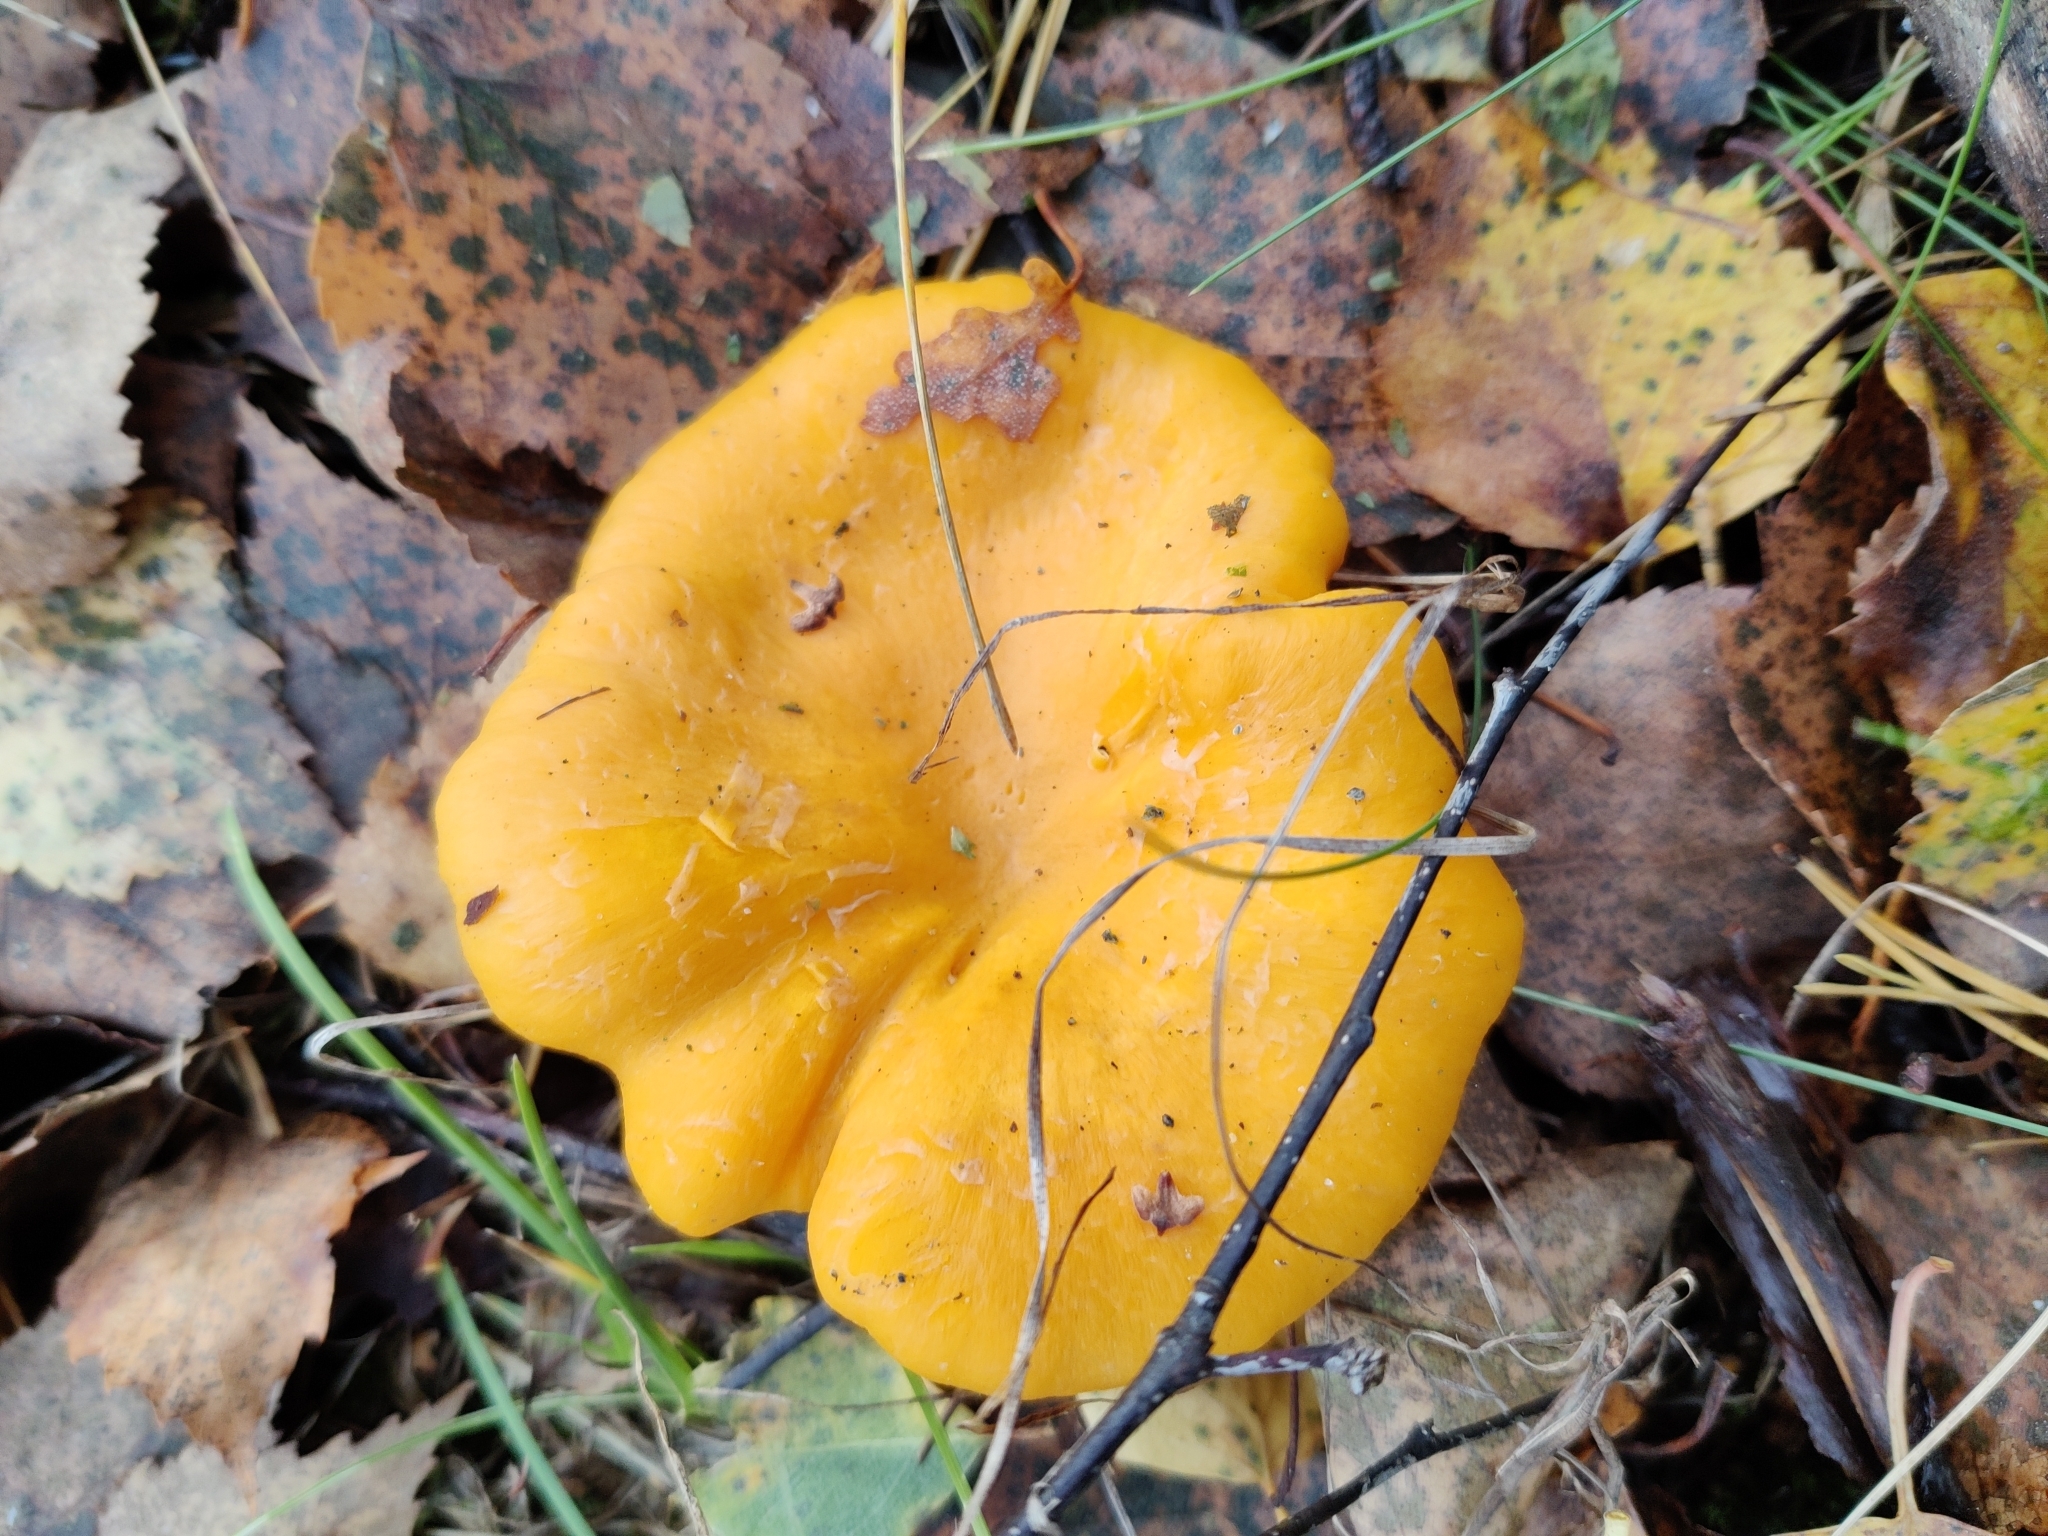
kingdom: Fungi
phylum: Basidiomycota
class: Agaricomycetes
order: Cantharellales
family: Hydnaceae
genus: Cantharellus
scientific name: Cantharellus cibarius
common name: Chanterelle
